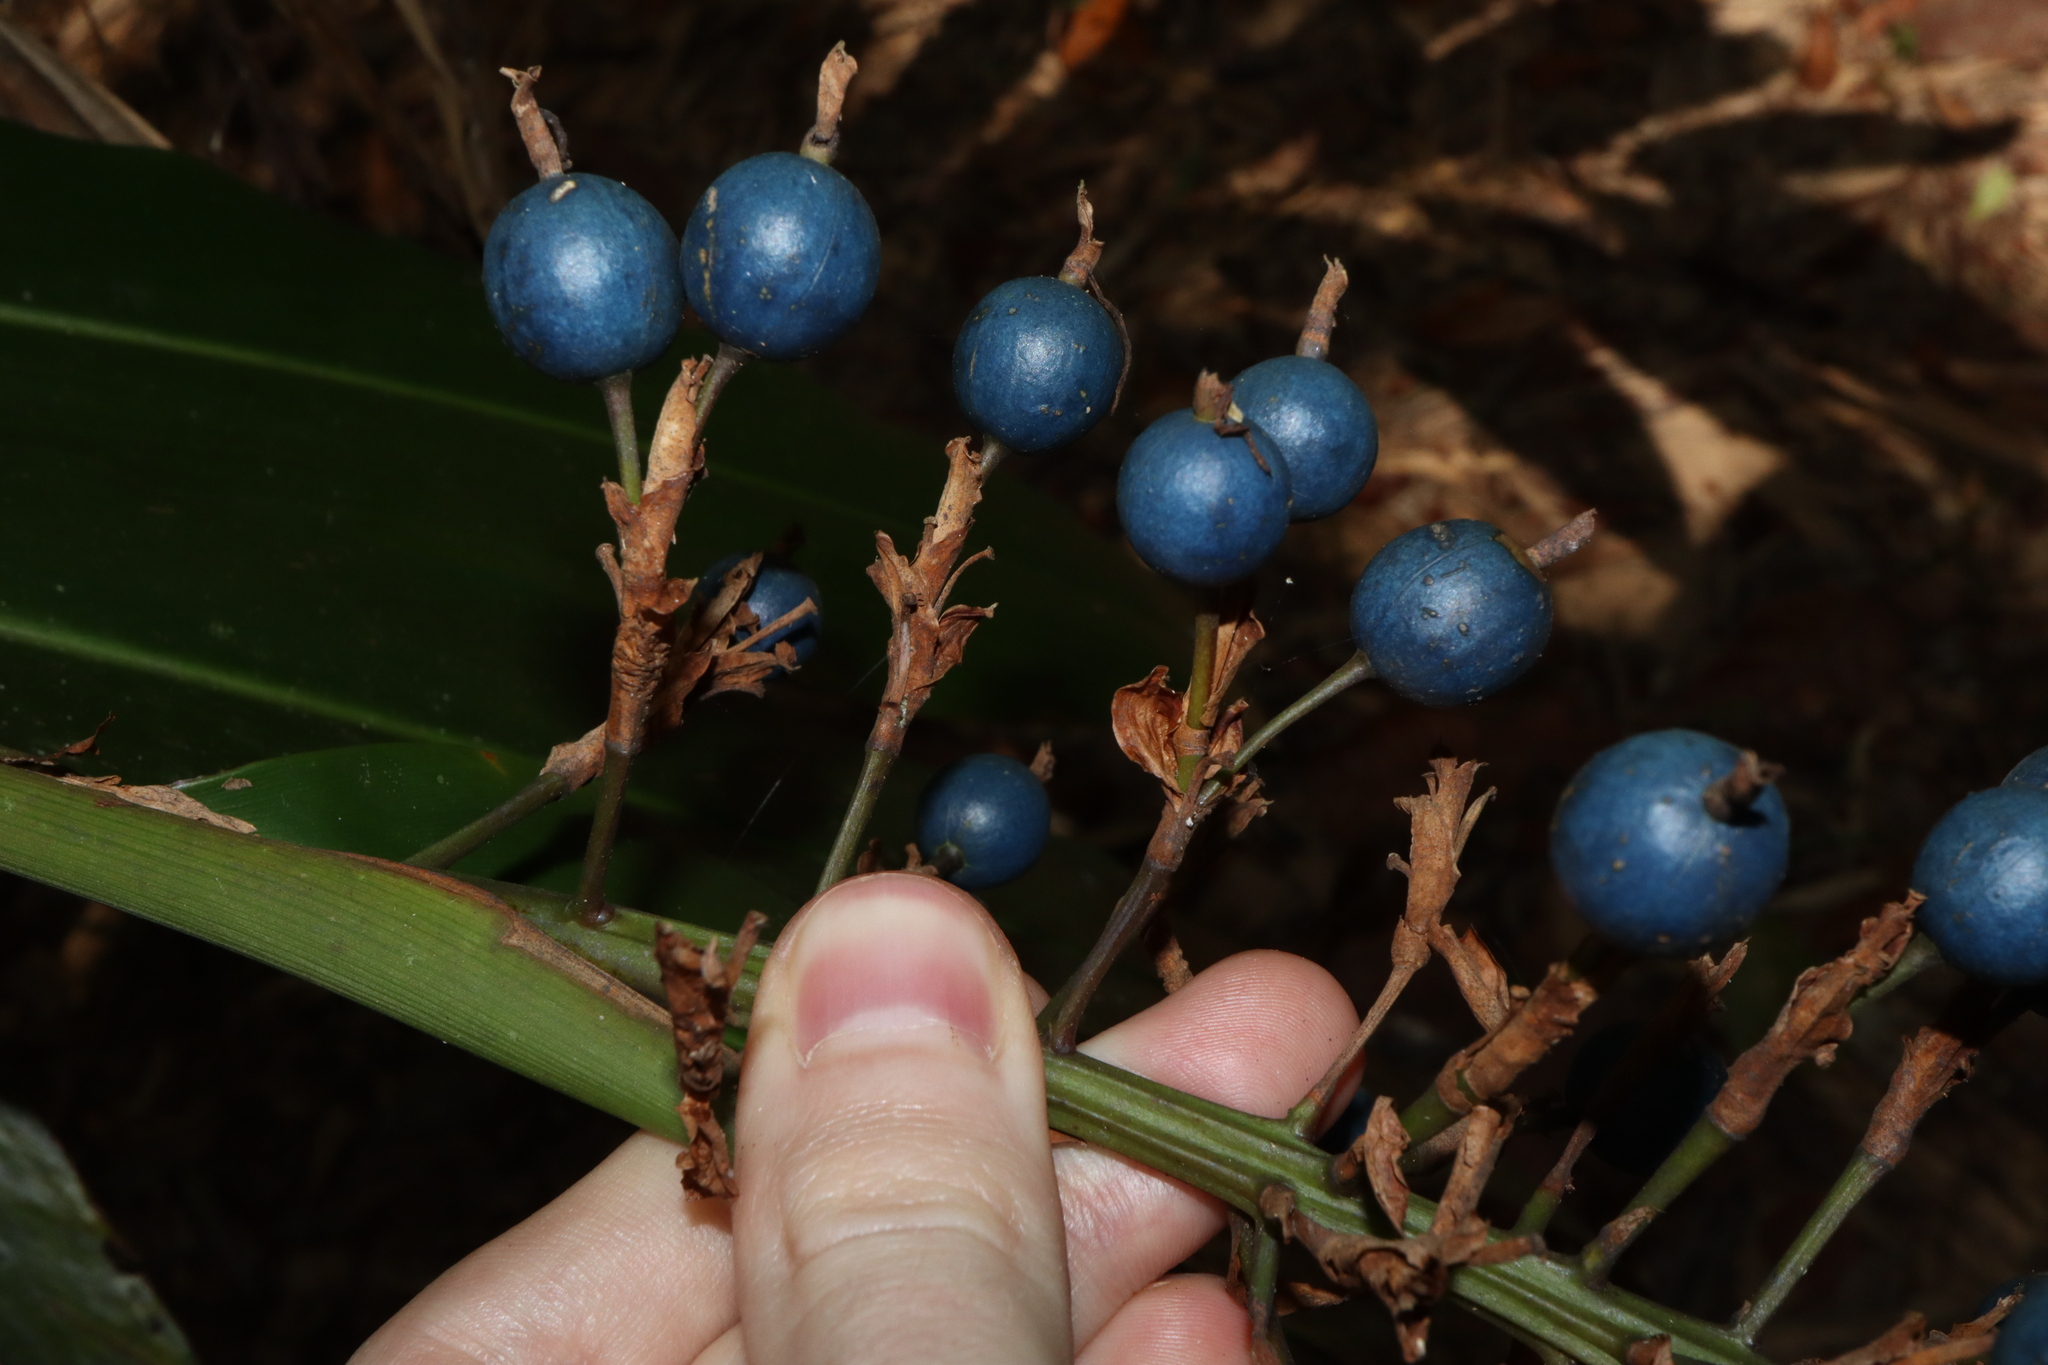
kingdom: Plantae
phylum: Tracheophyta
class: Liliopsida
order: Zingiberales
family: Zingiberaceae
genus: Alpinia
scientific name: Alpinia caerulea
